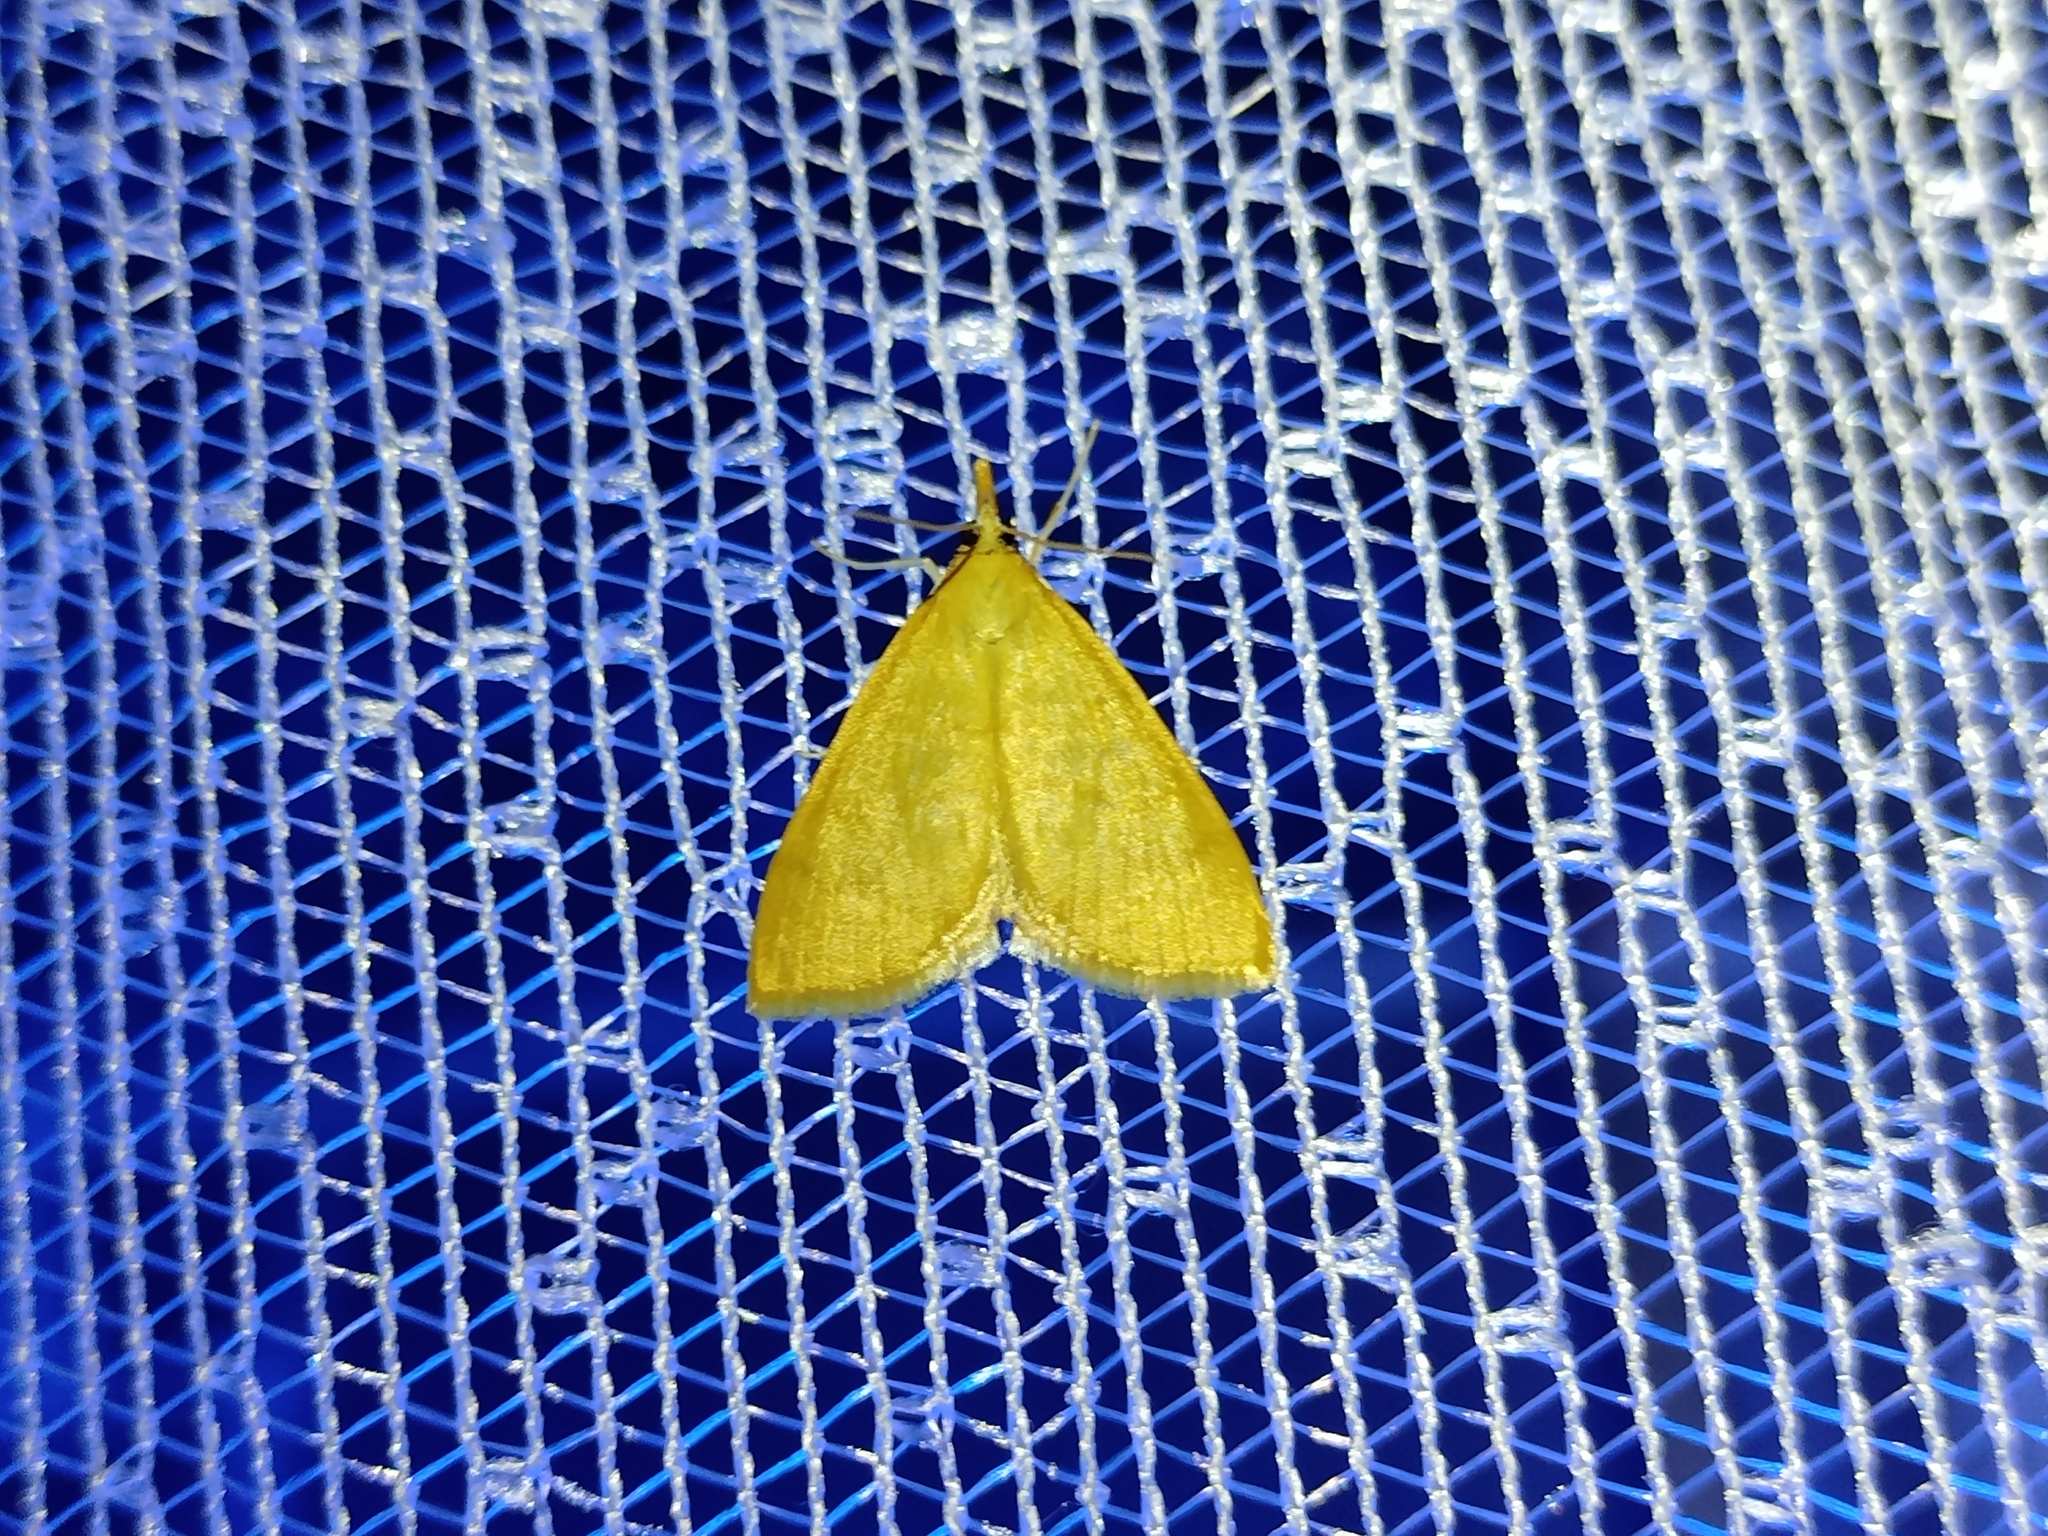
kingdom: Animalia
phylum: Arthropoda
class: Insecta
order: Lepidoptera
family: Crambidae
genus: Anania
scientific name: Anania crocealis
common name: Ochreous pearl
